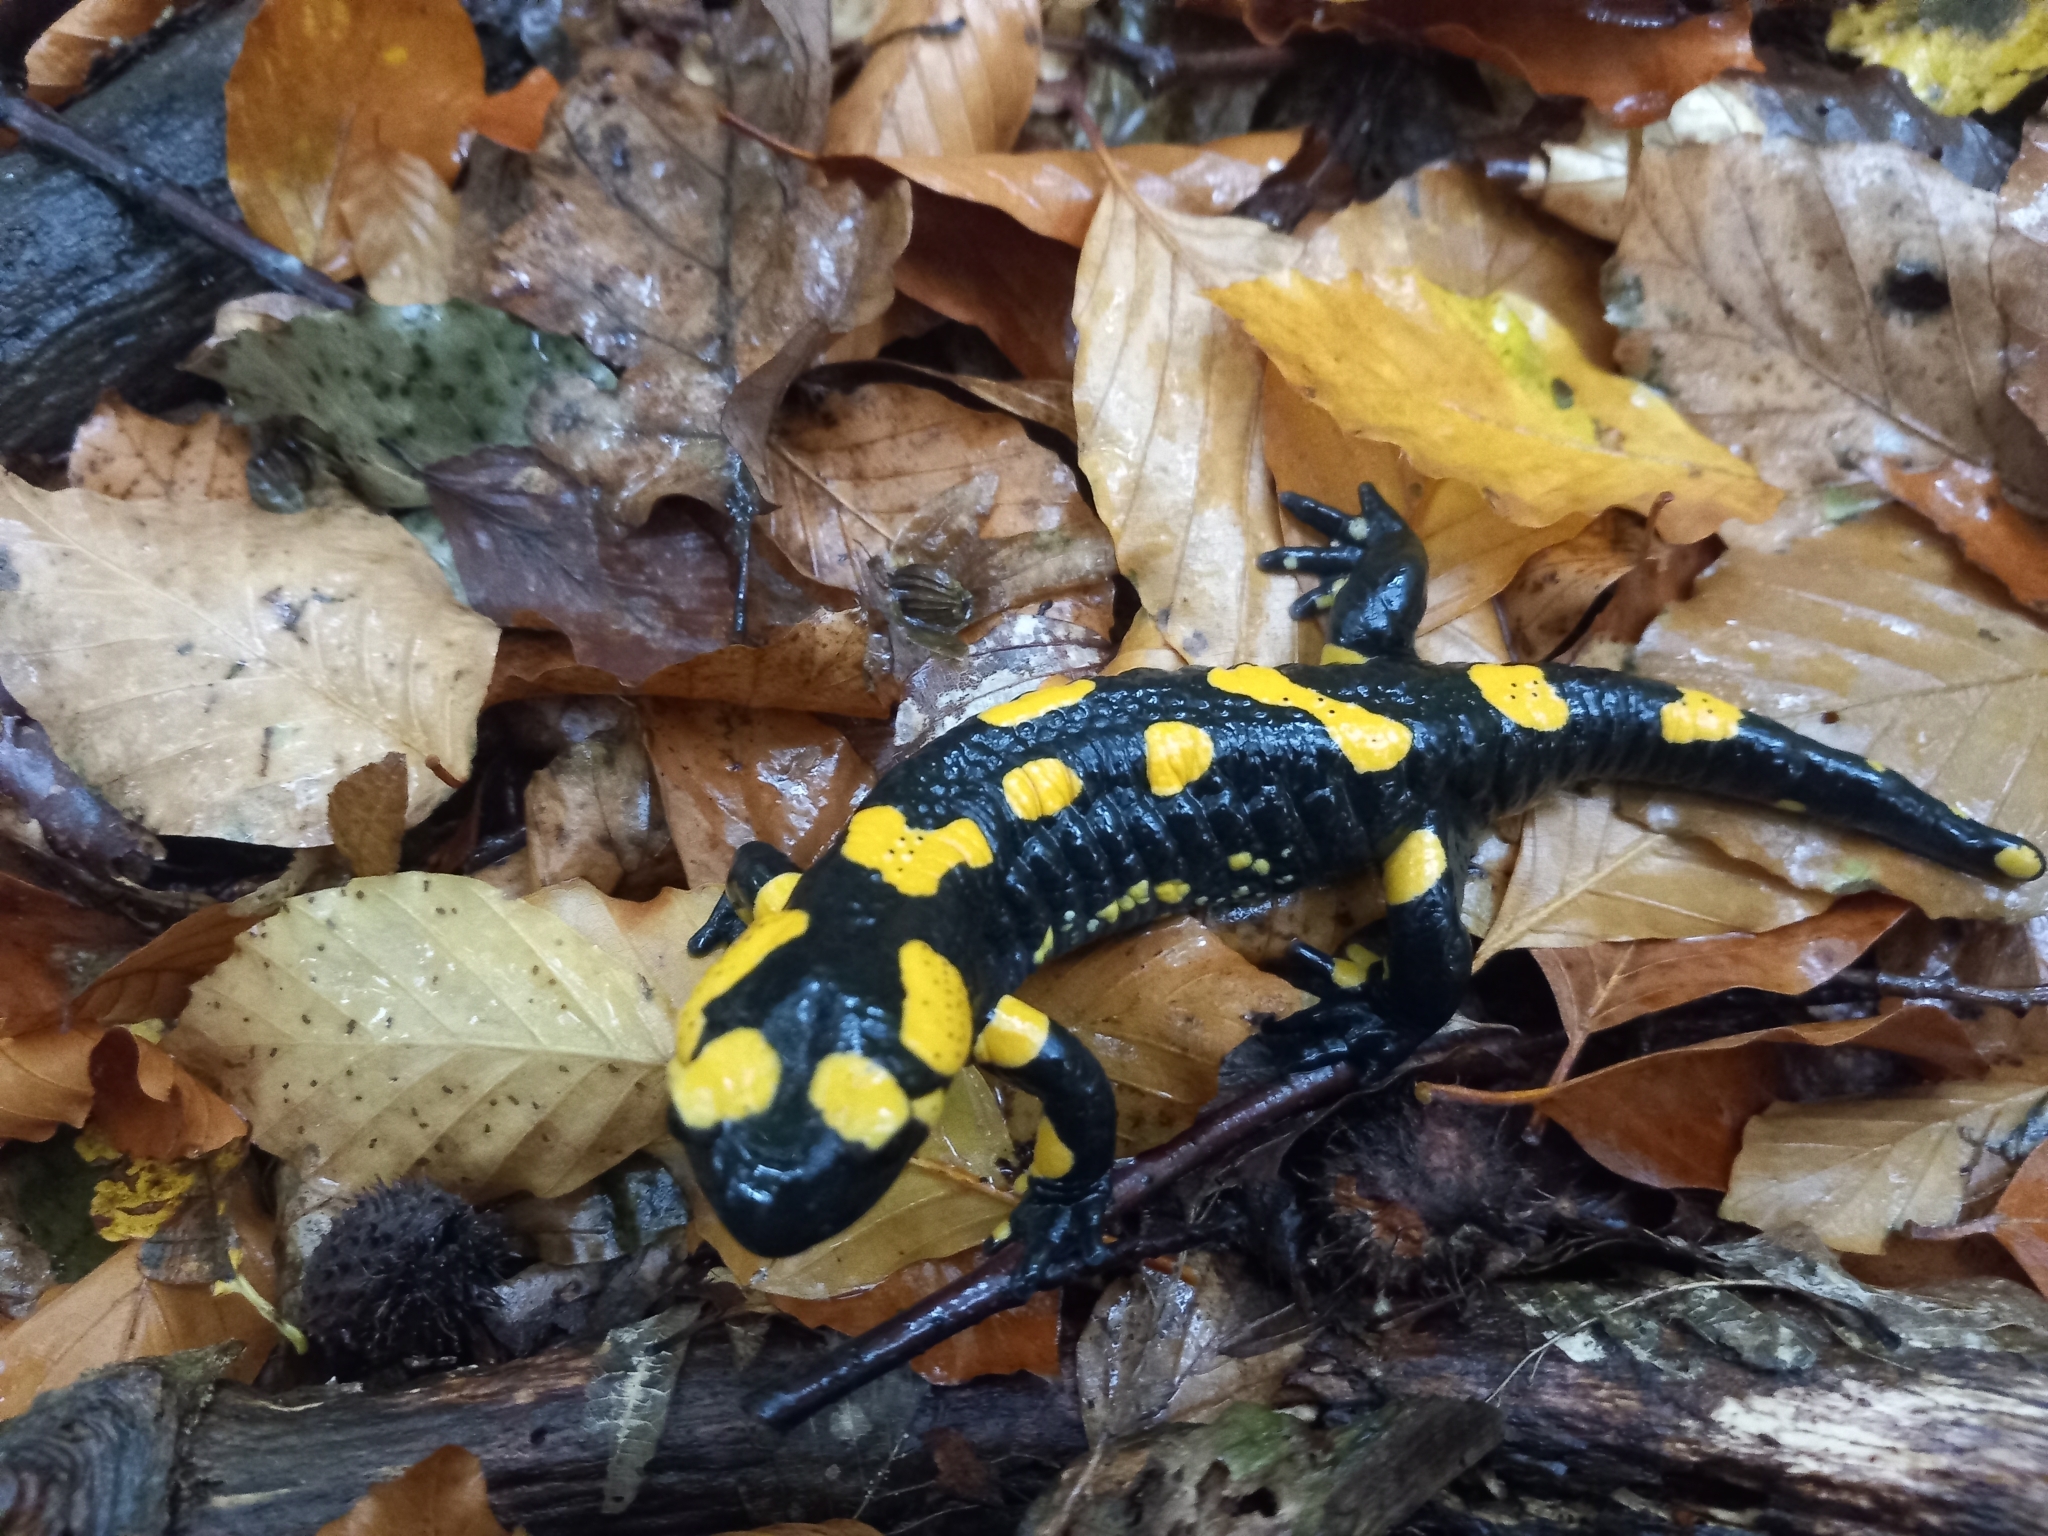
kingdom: Animalia
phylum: Chordata
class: Amphibia
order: Caudata
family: Salamandridae
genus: Salamandra
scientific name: Salamandra salamandra
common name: Fire salamander
